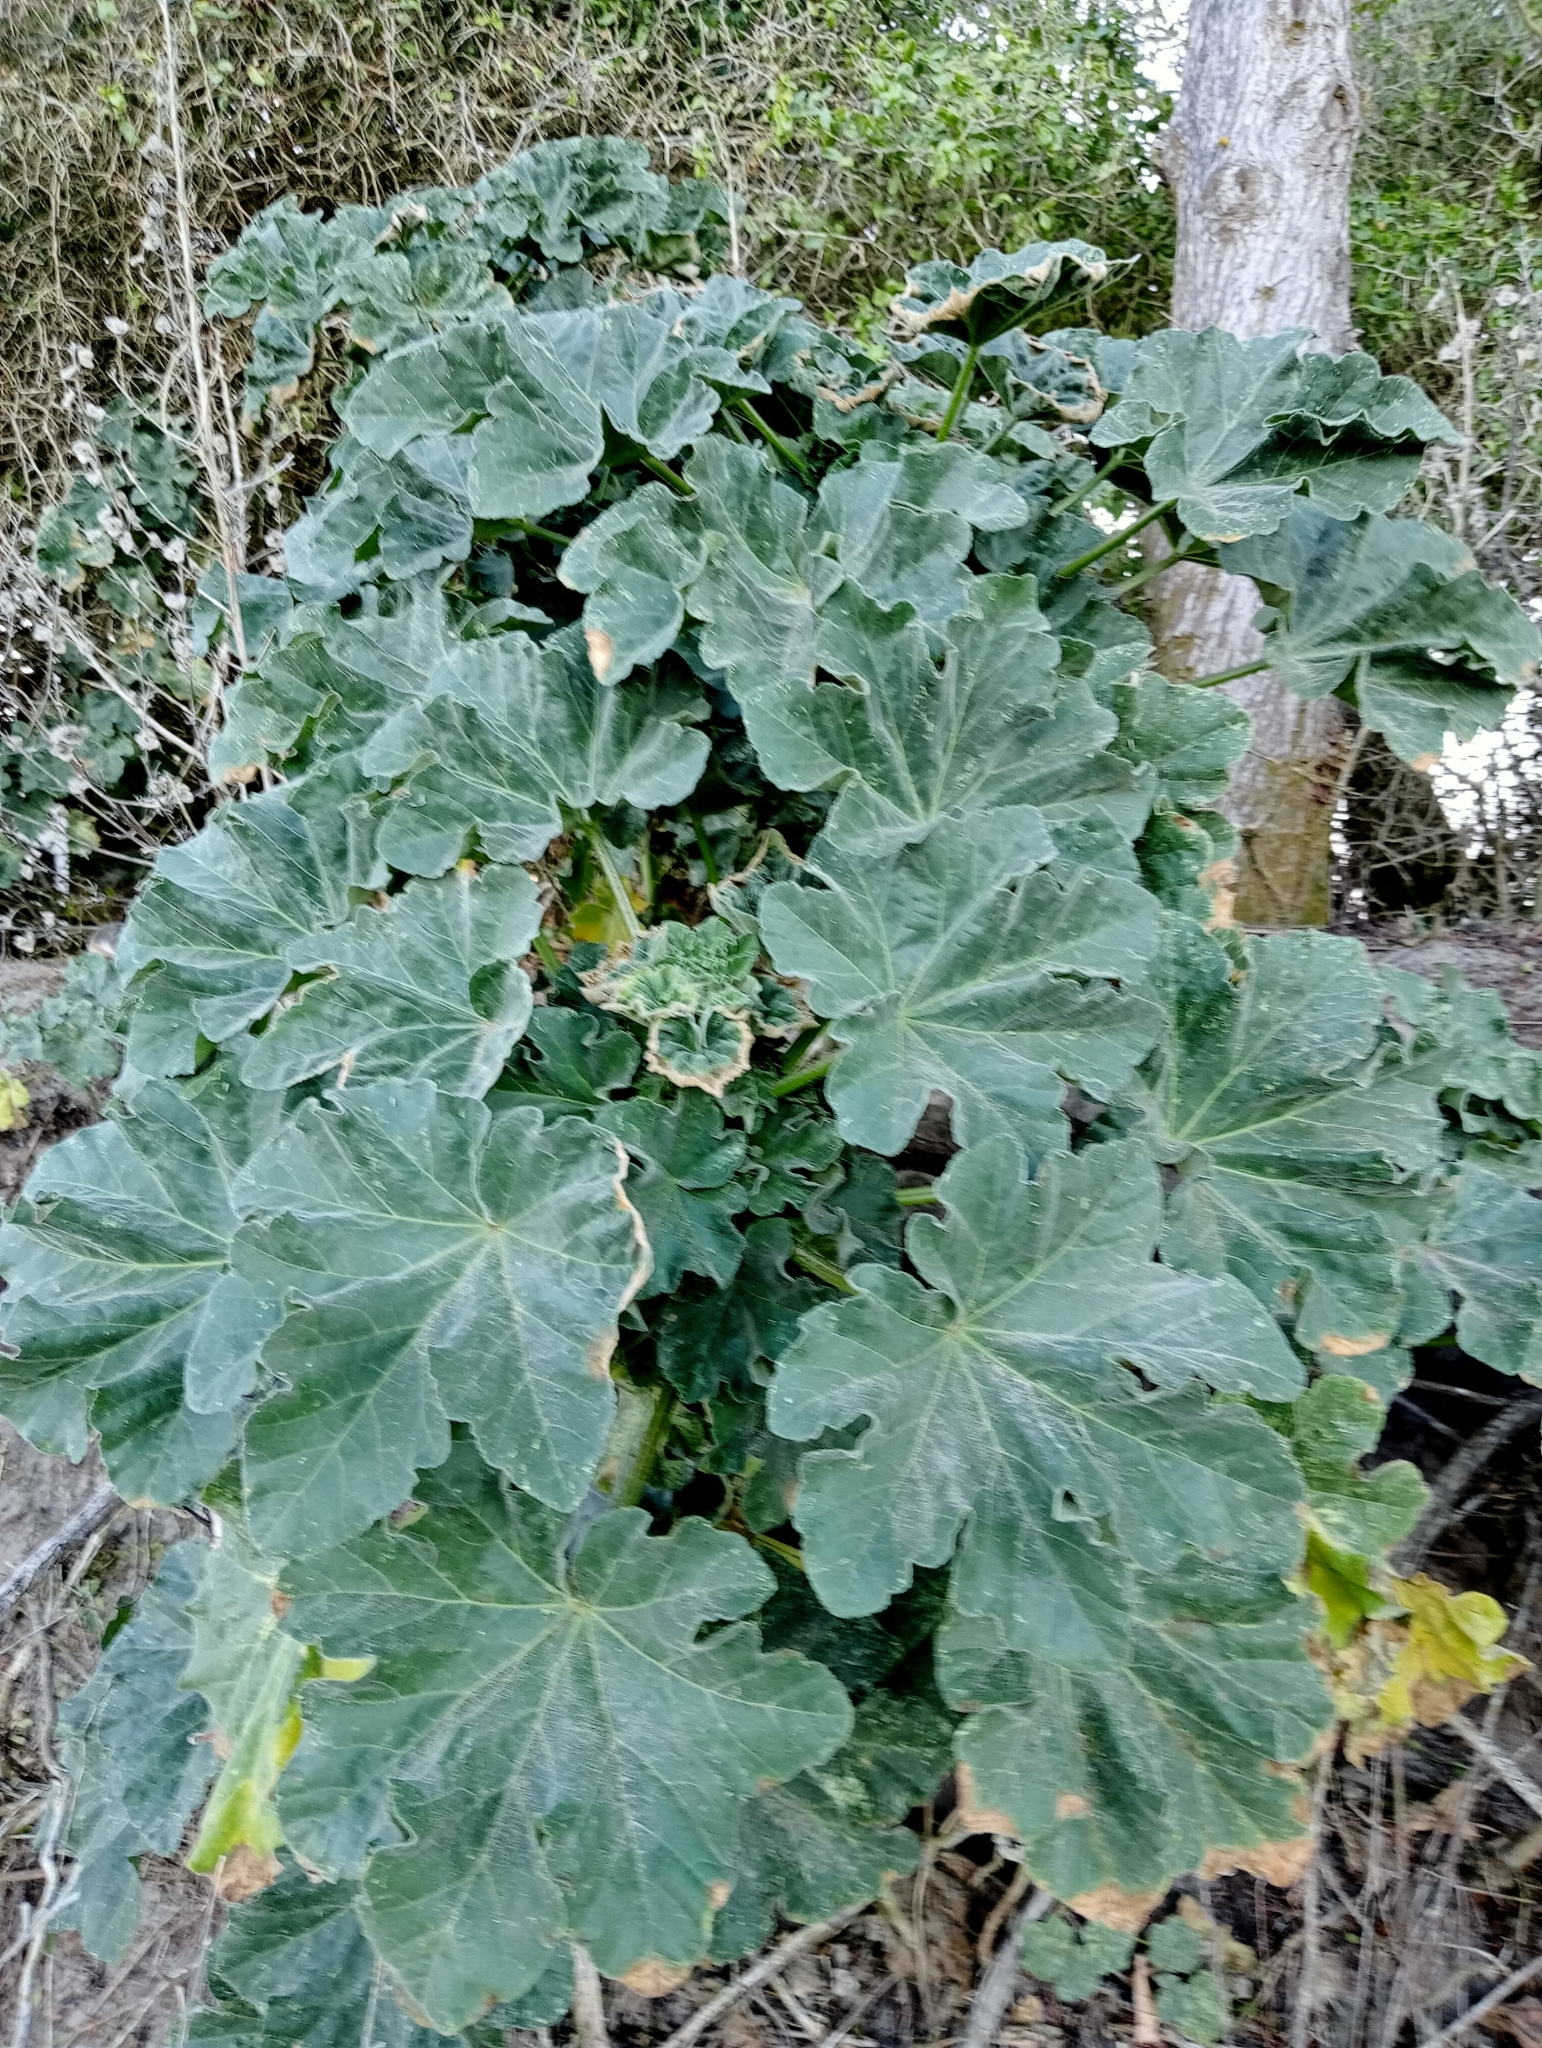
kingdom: Plantae
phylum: Tracheophyta
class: Magnoliopsida
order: Malvales
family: Malvaceae
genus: Malva
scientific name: Malva arborea
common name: Tree mallow
